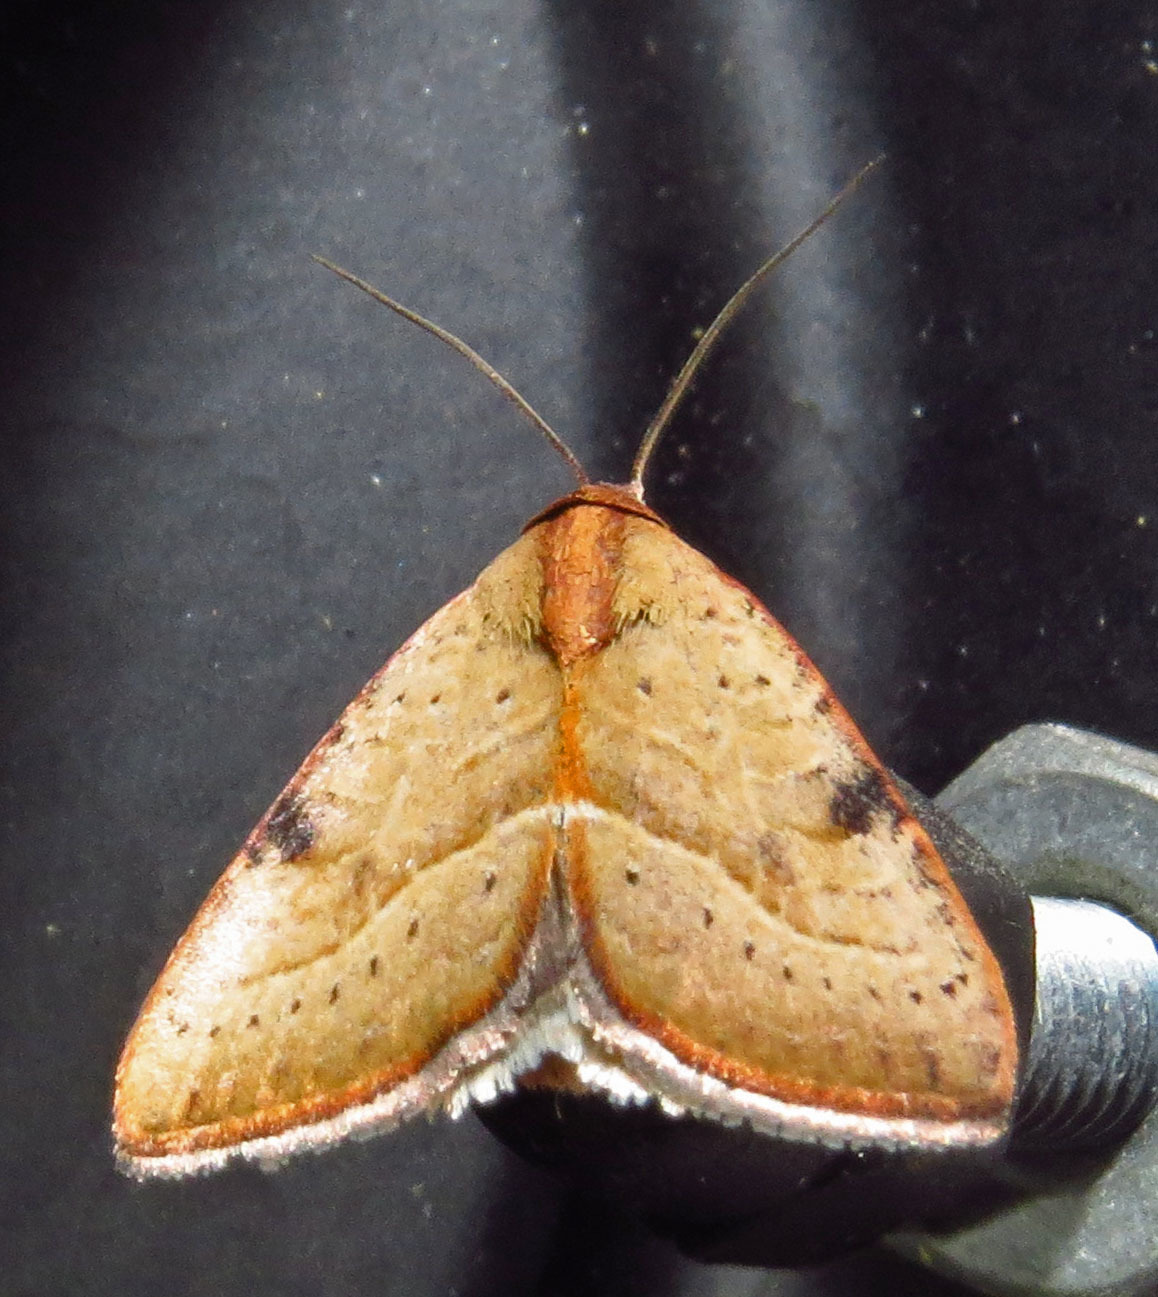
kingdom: Animalia
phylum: Arthropoda
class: Insecta
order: Lepidoptera
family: Noctuidae
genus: Galgula
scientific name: Galgula partita
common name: Wedgeling
